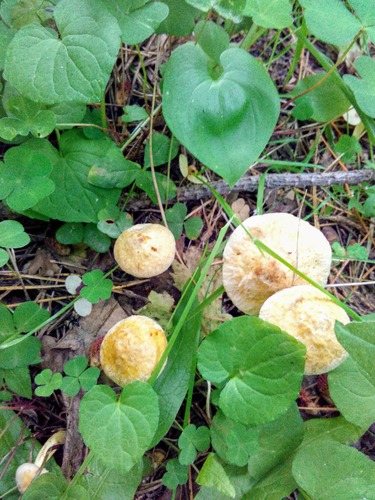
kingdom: Fungi
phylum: Basidiomycota
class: Agaricomycetes
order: Boletales
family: Suillaceae
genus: Suillus
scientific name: Suillus americanus
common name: Chicken fat mushroom
